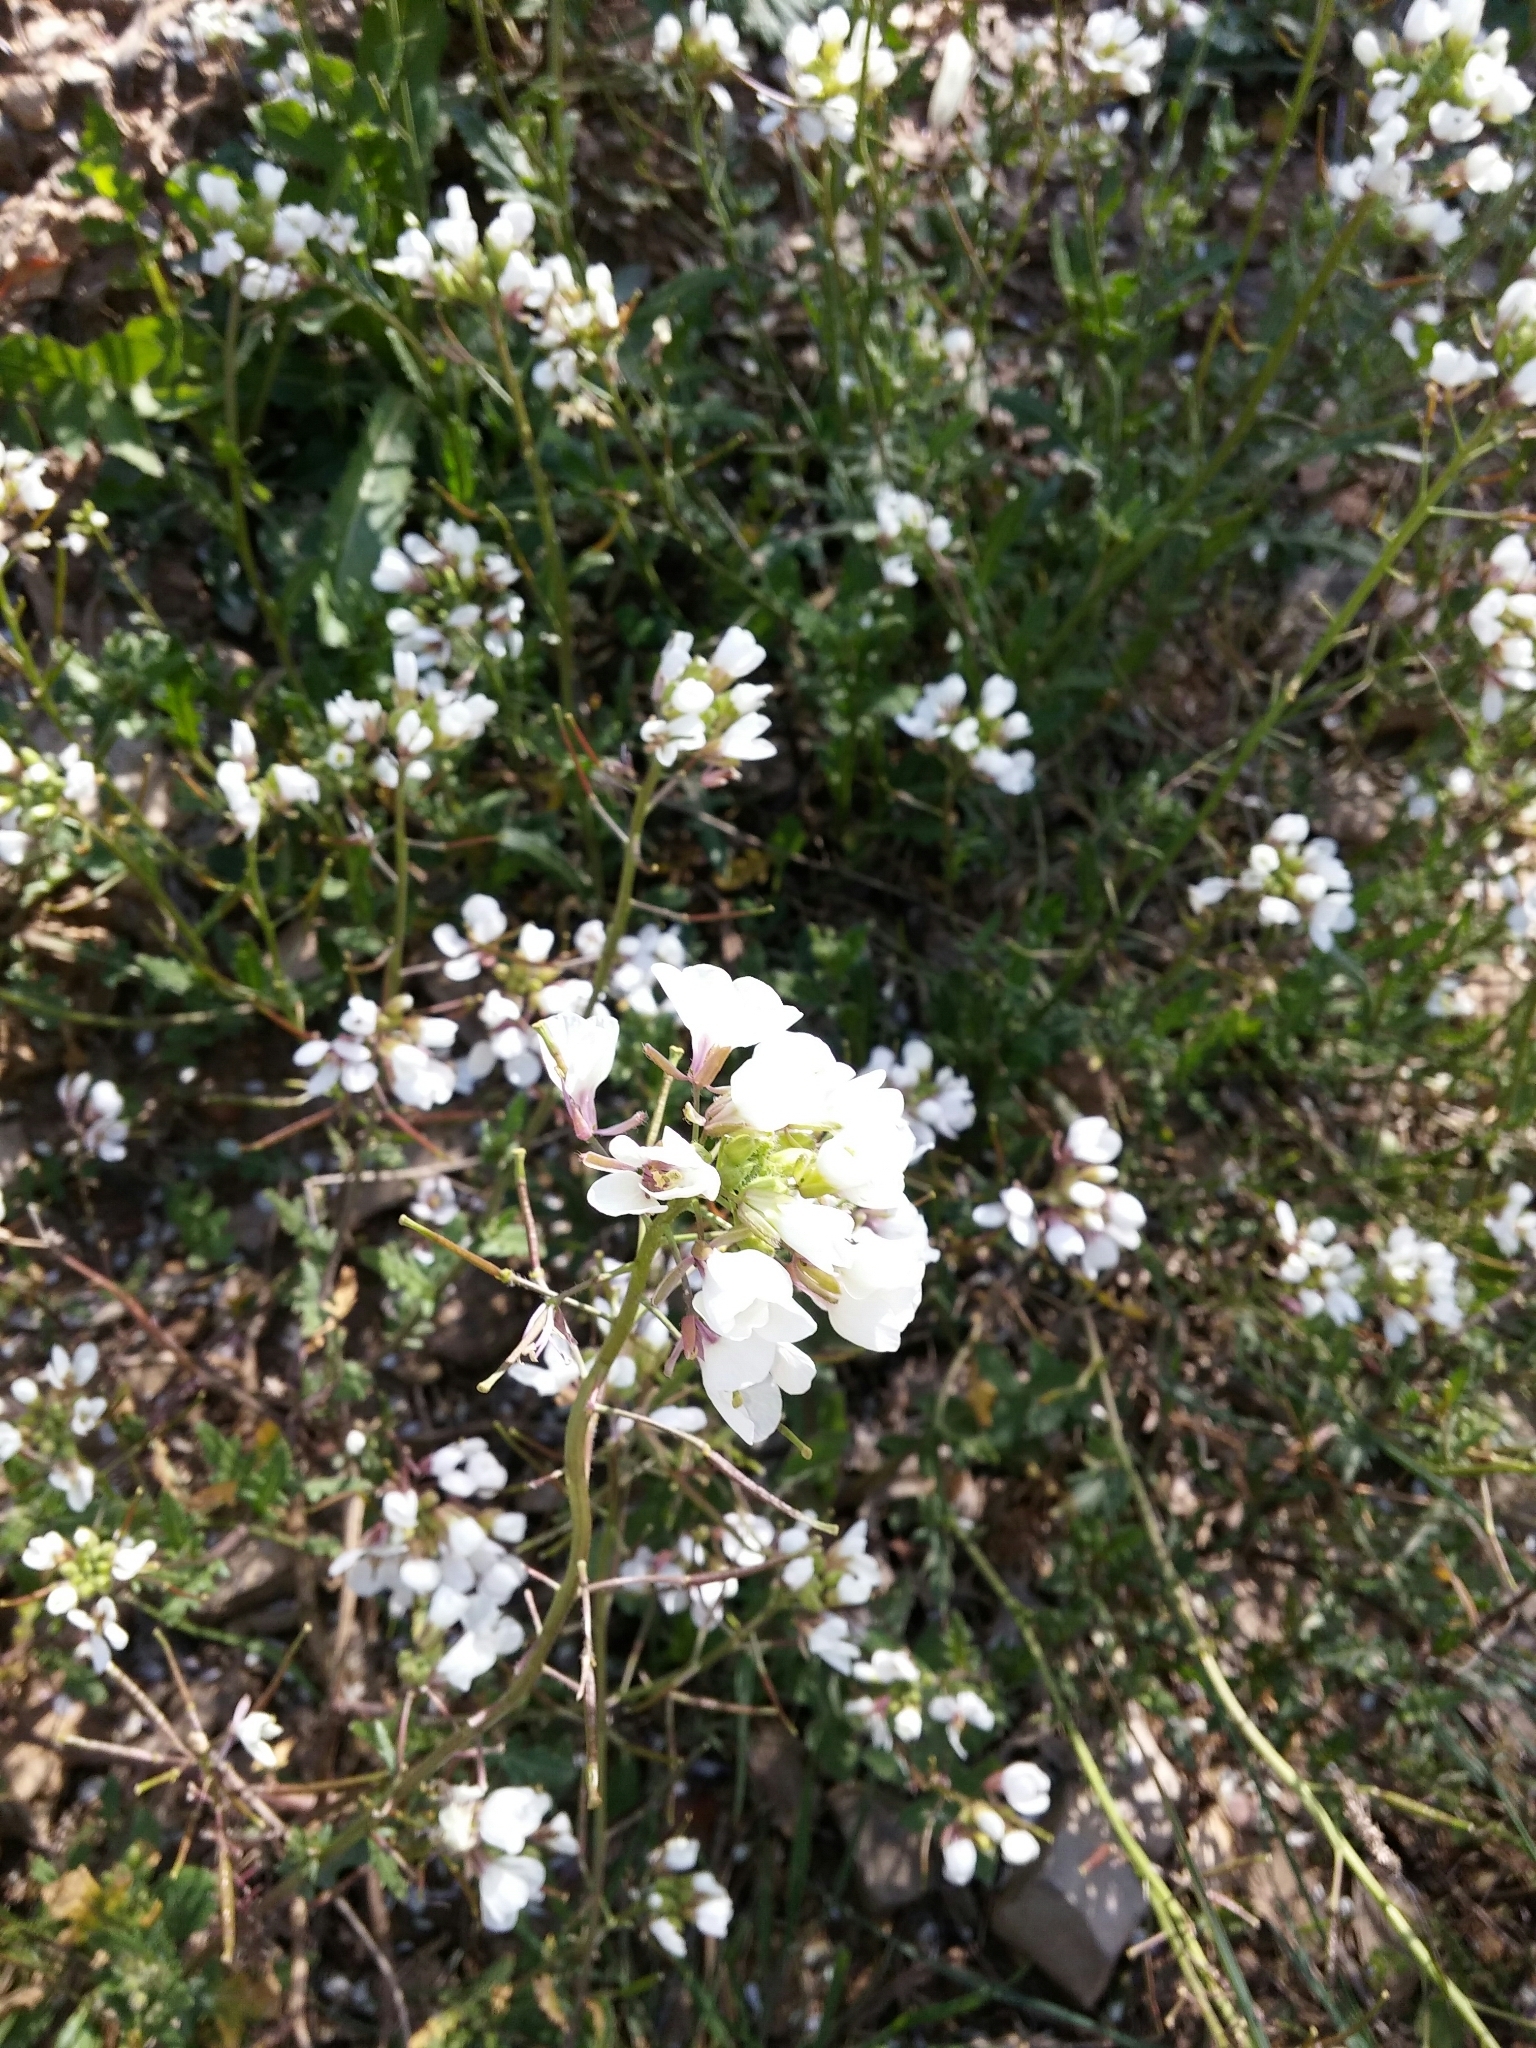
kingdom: Plantae
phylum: Tracheophyta
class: Magnoliopsida
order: Brassicales
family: Brassicaceae
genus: Diplotaxis
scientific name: Diplotaxis erucoides
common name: White rocket
